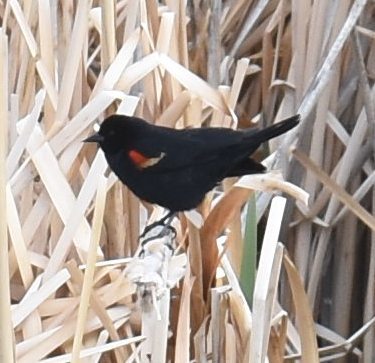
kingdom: Animalia
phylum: Chordata
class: Aves
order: Passeriformes
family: Icteridae
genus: Agelaius
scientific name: Agelaius phoeniceus
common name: Red-winged blackbird
